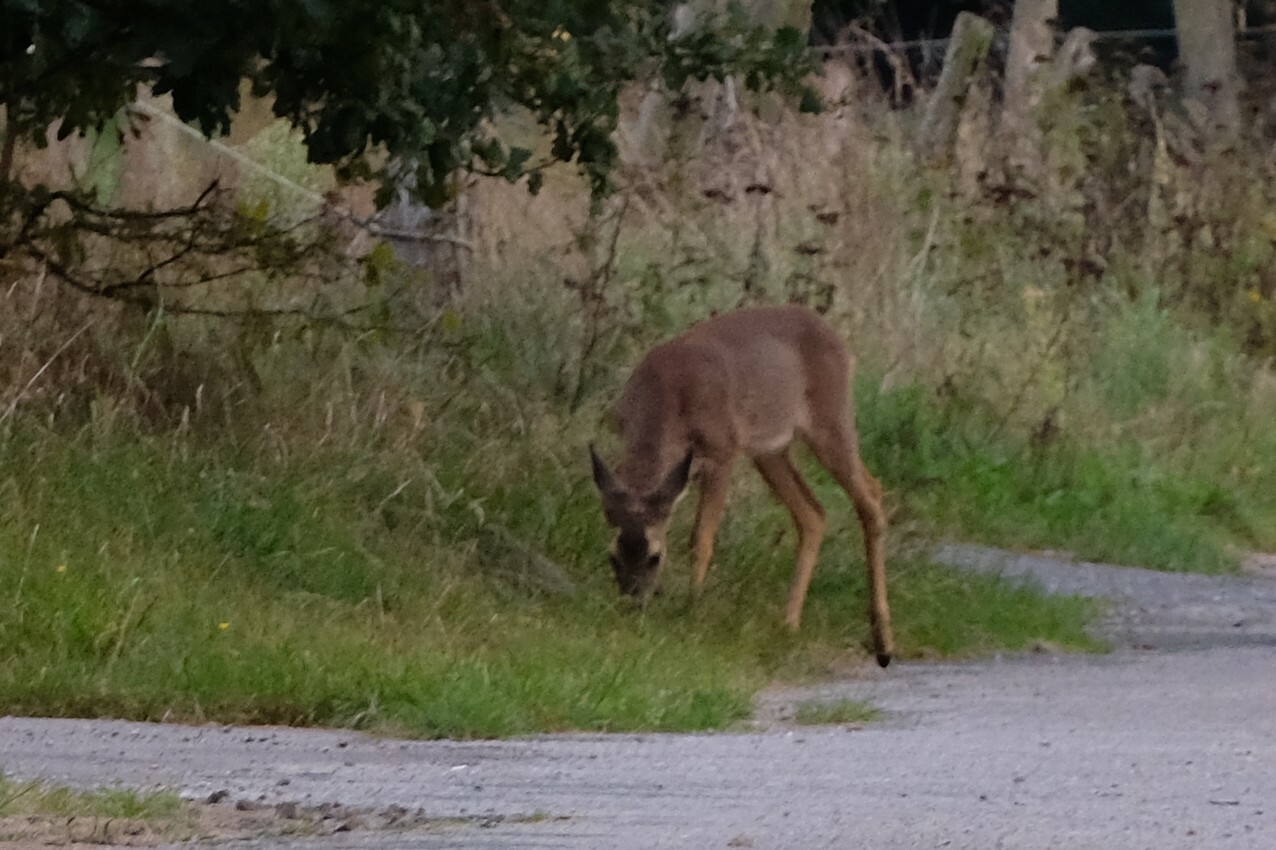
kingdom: Animalia
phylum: Chordata
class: Mammalia
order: Artiodactyla
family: Cervidae
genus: Capreolus
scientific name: Capreolus capreolus
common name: Western roe deer
